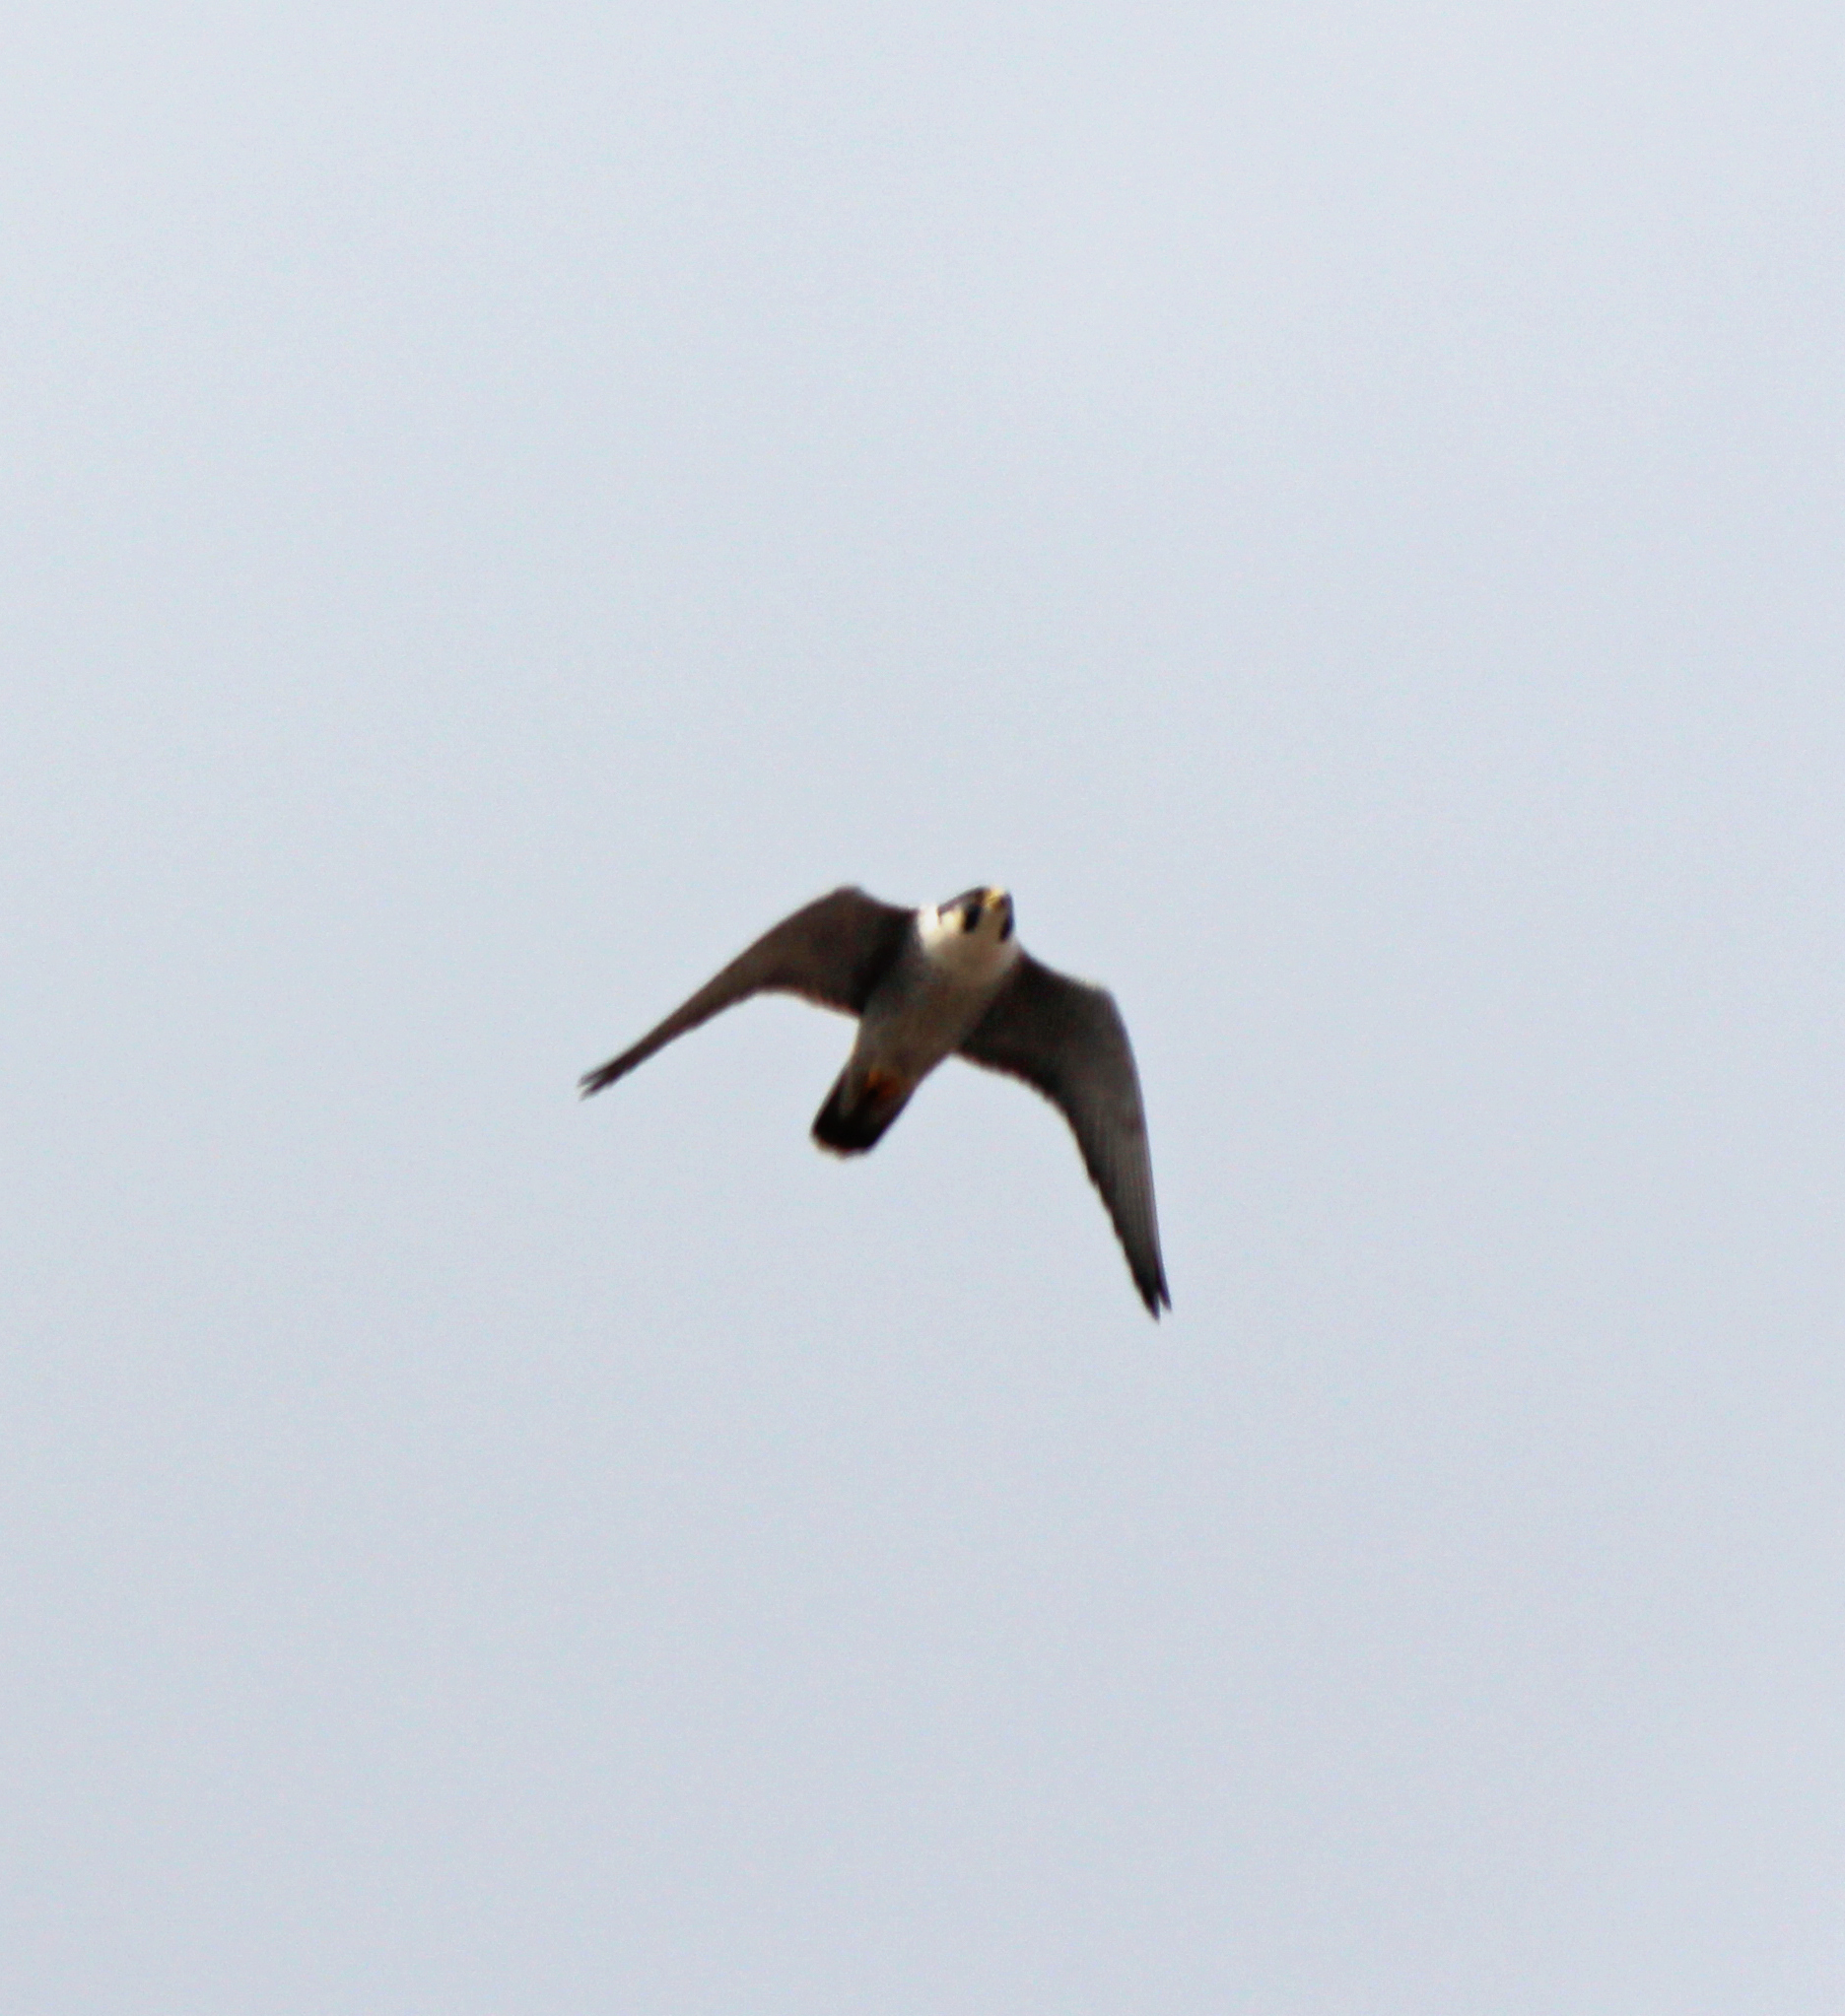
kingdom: Animalia
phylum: Chordata
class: Aves
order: Falconiformes
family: Falconidae
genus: Falco
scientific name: Falco peregrinus
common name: Peregrine falcon
